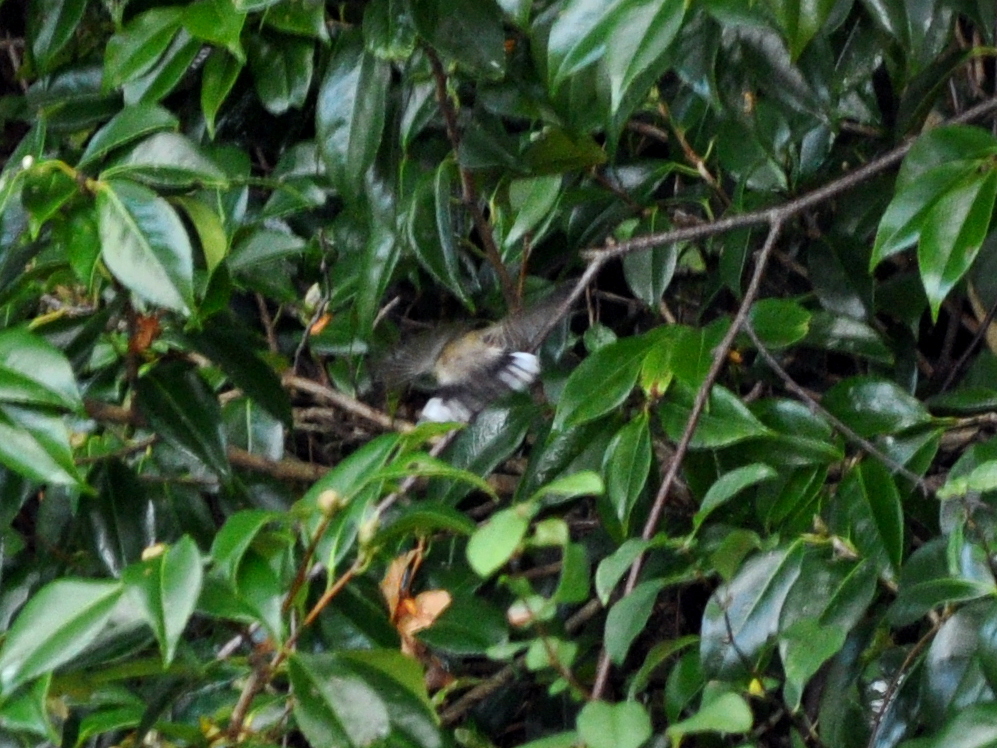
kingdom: Animalia
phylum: Chordata
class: Aves
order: Passeriformes
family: Acanthizidae
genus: Gerygone
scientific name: Gerygone igata
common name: Grey gerygone
